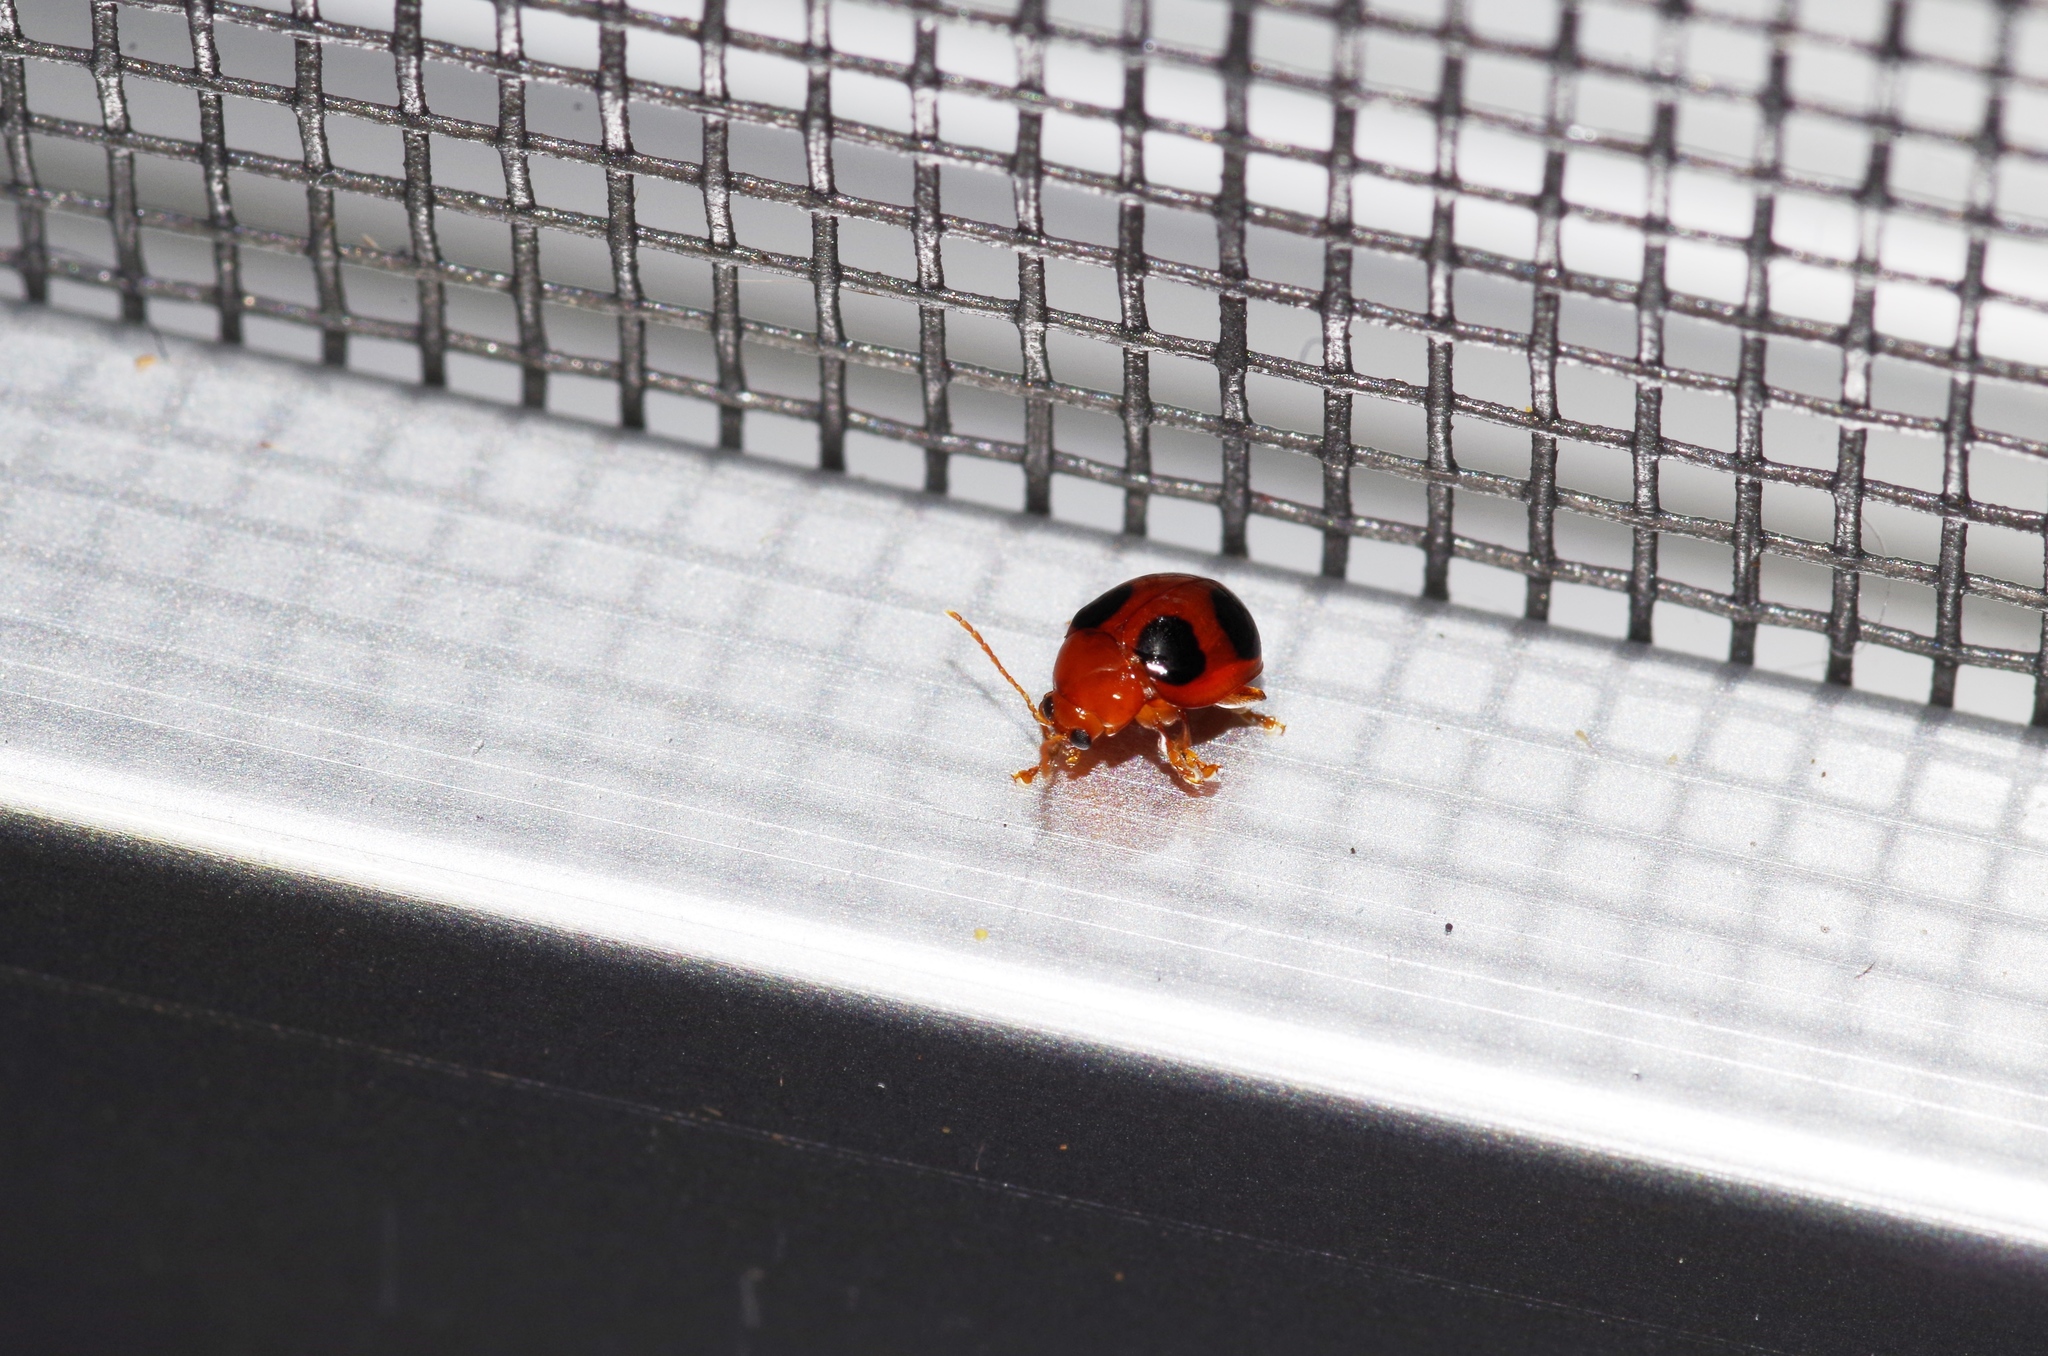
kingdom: Animalia
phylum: Arthropoda
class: Insecta
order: Coleoptera
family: Chrysomelidae
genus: Sphaeroderma
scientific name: Sphaeroderma
